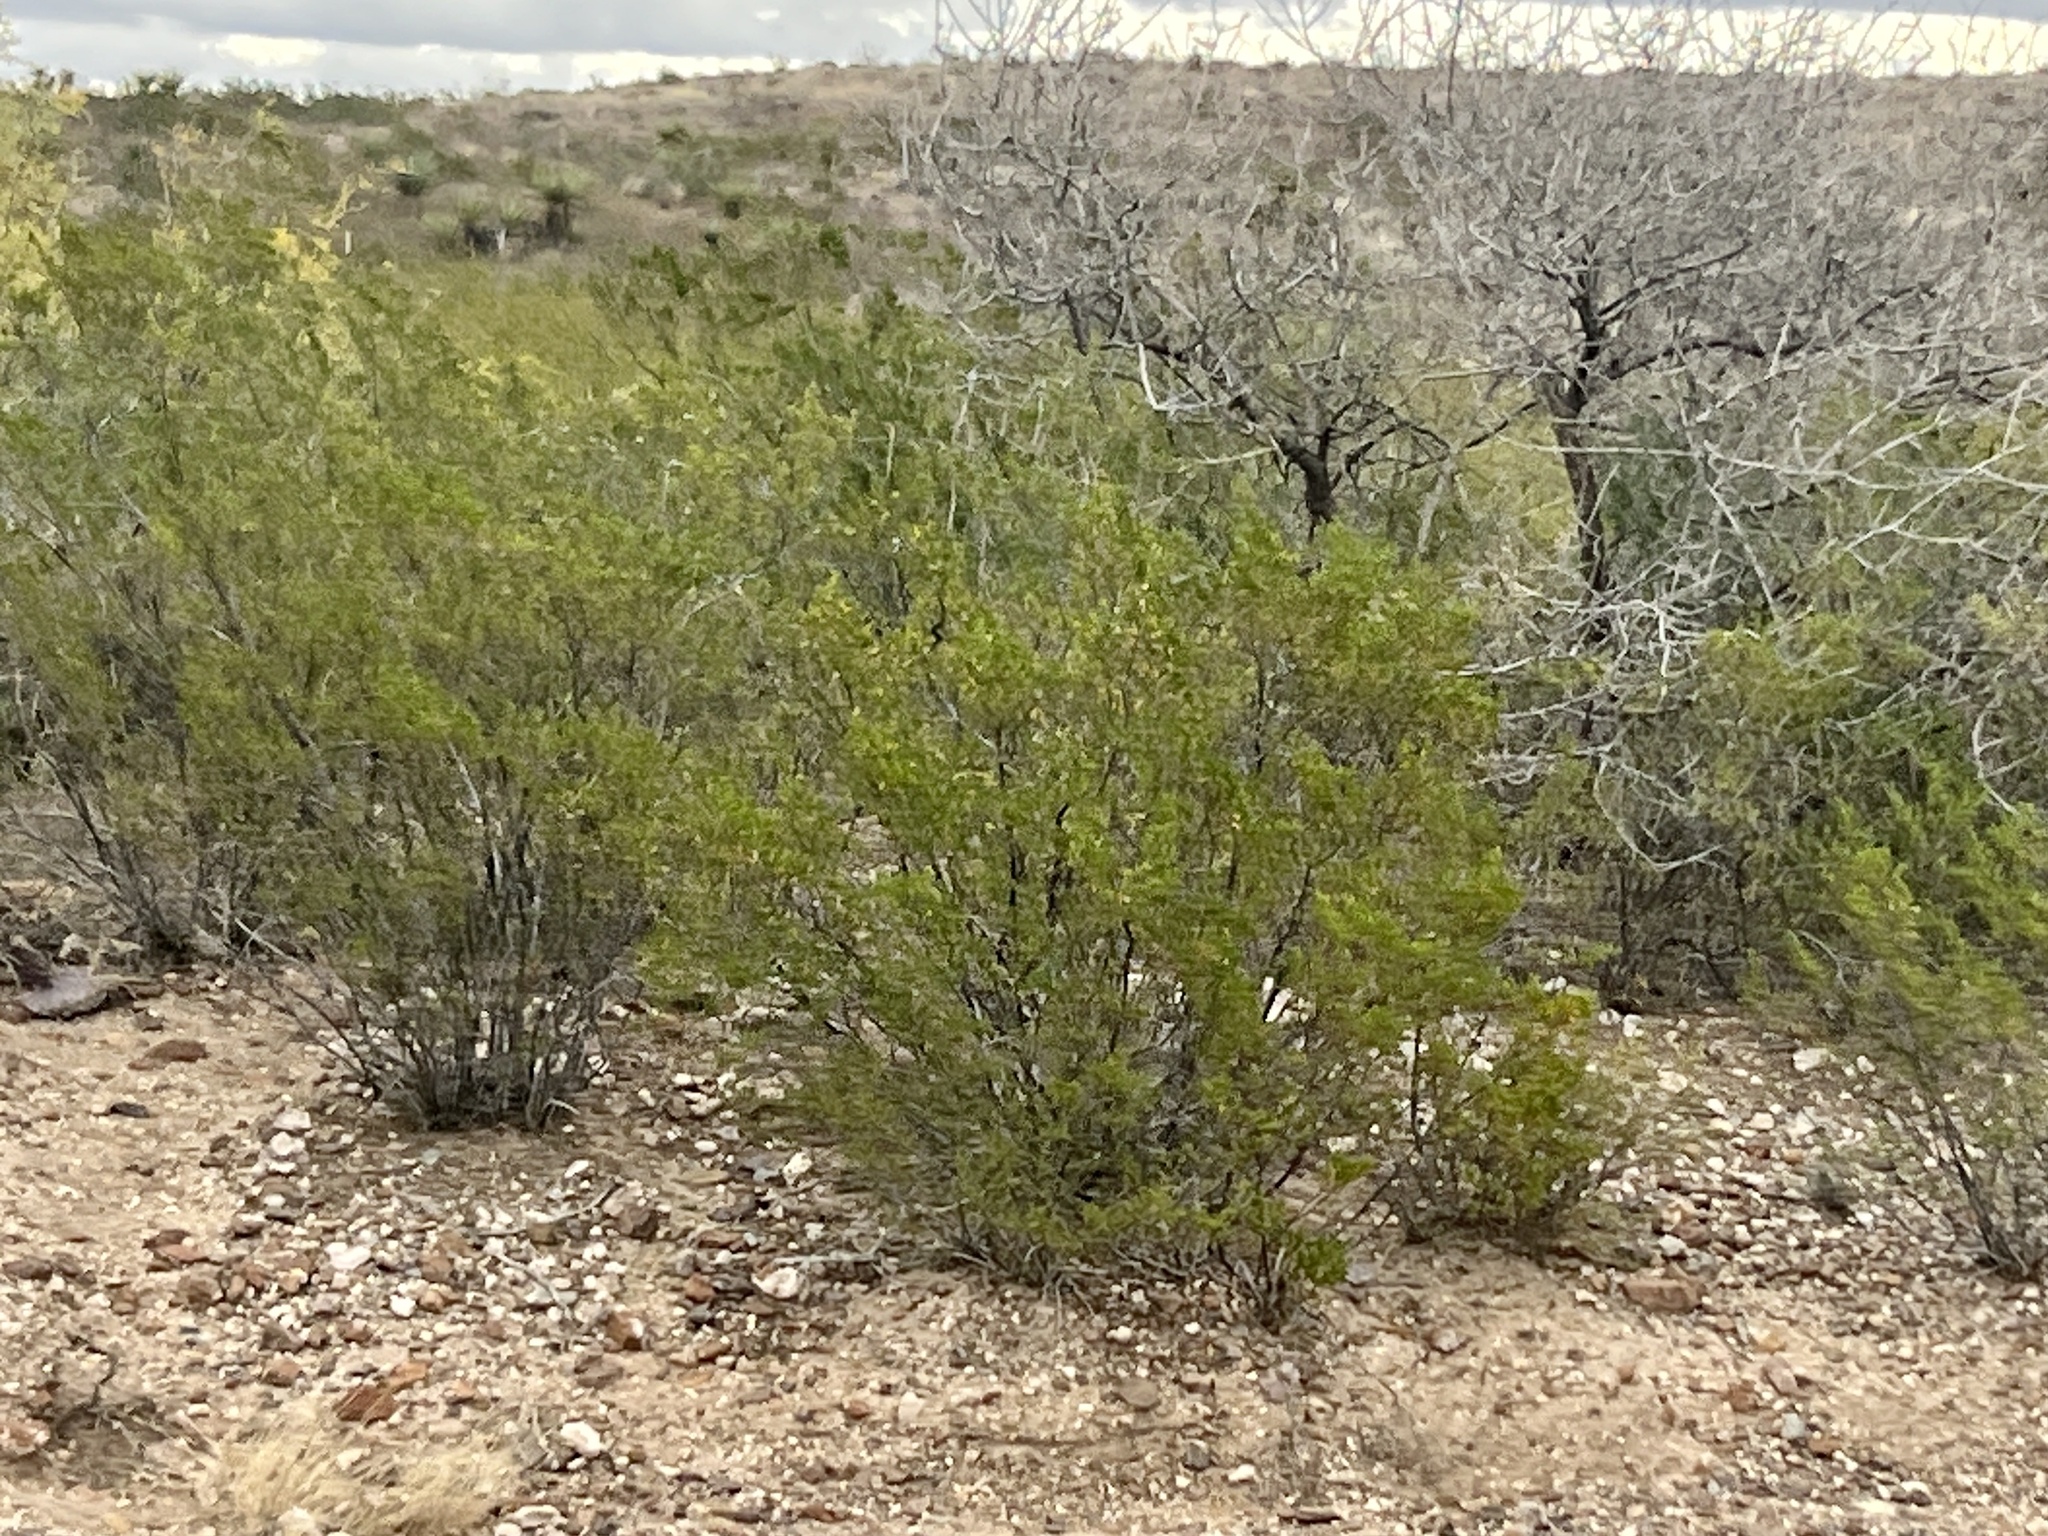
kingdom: Plantae
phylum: Tracheophyta
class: Magnoliopsida
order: Zygophyllales
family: Zygophyllaceae
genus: Larrea
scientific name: Larrea tridentata
